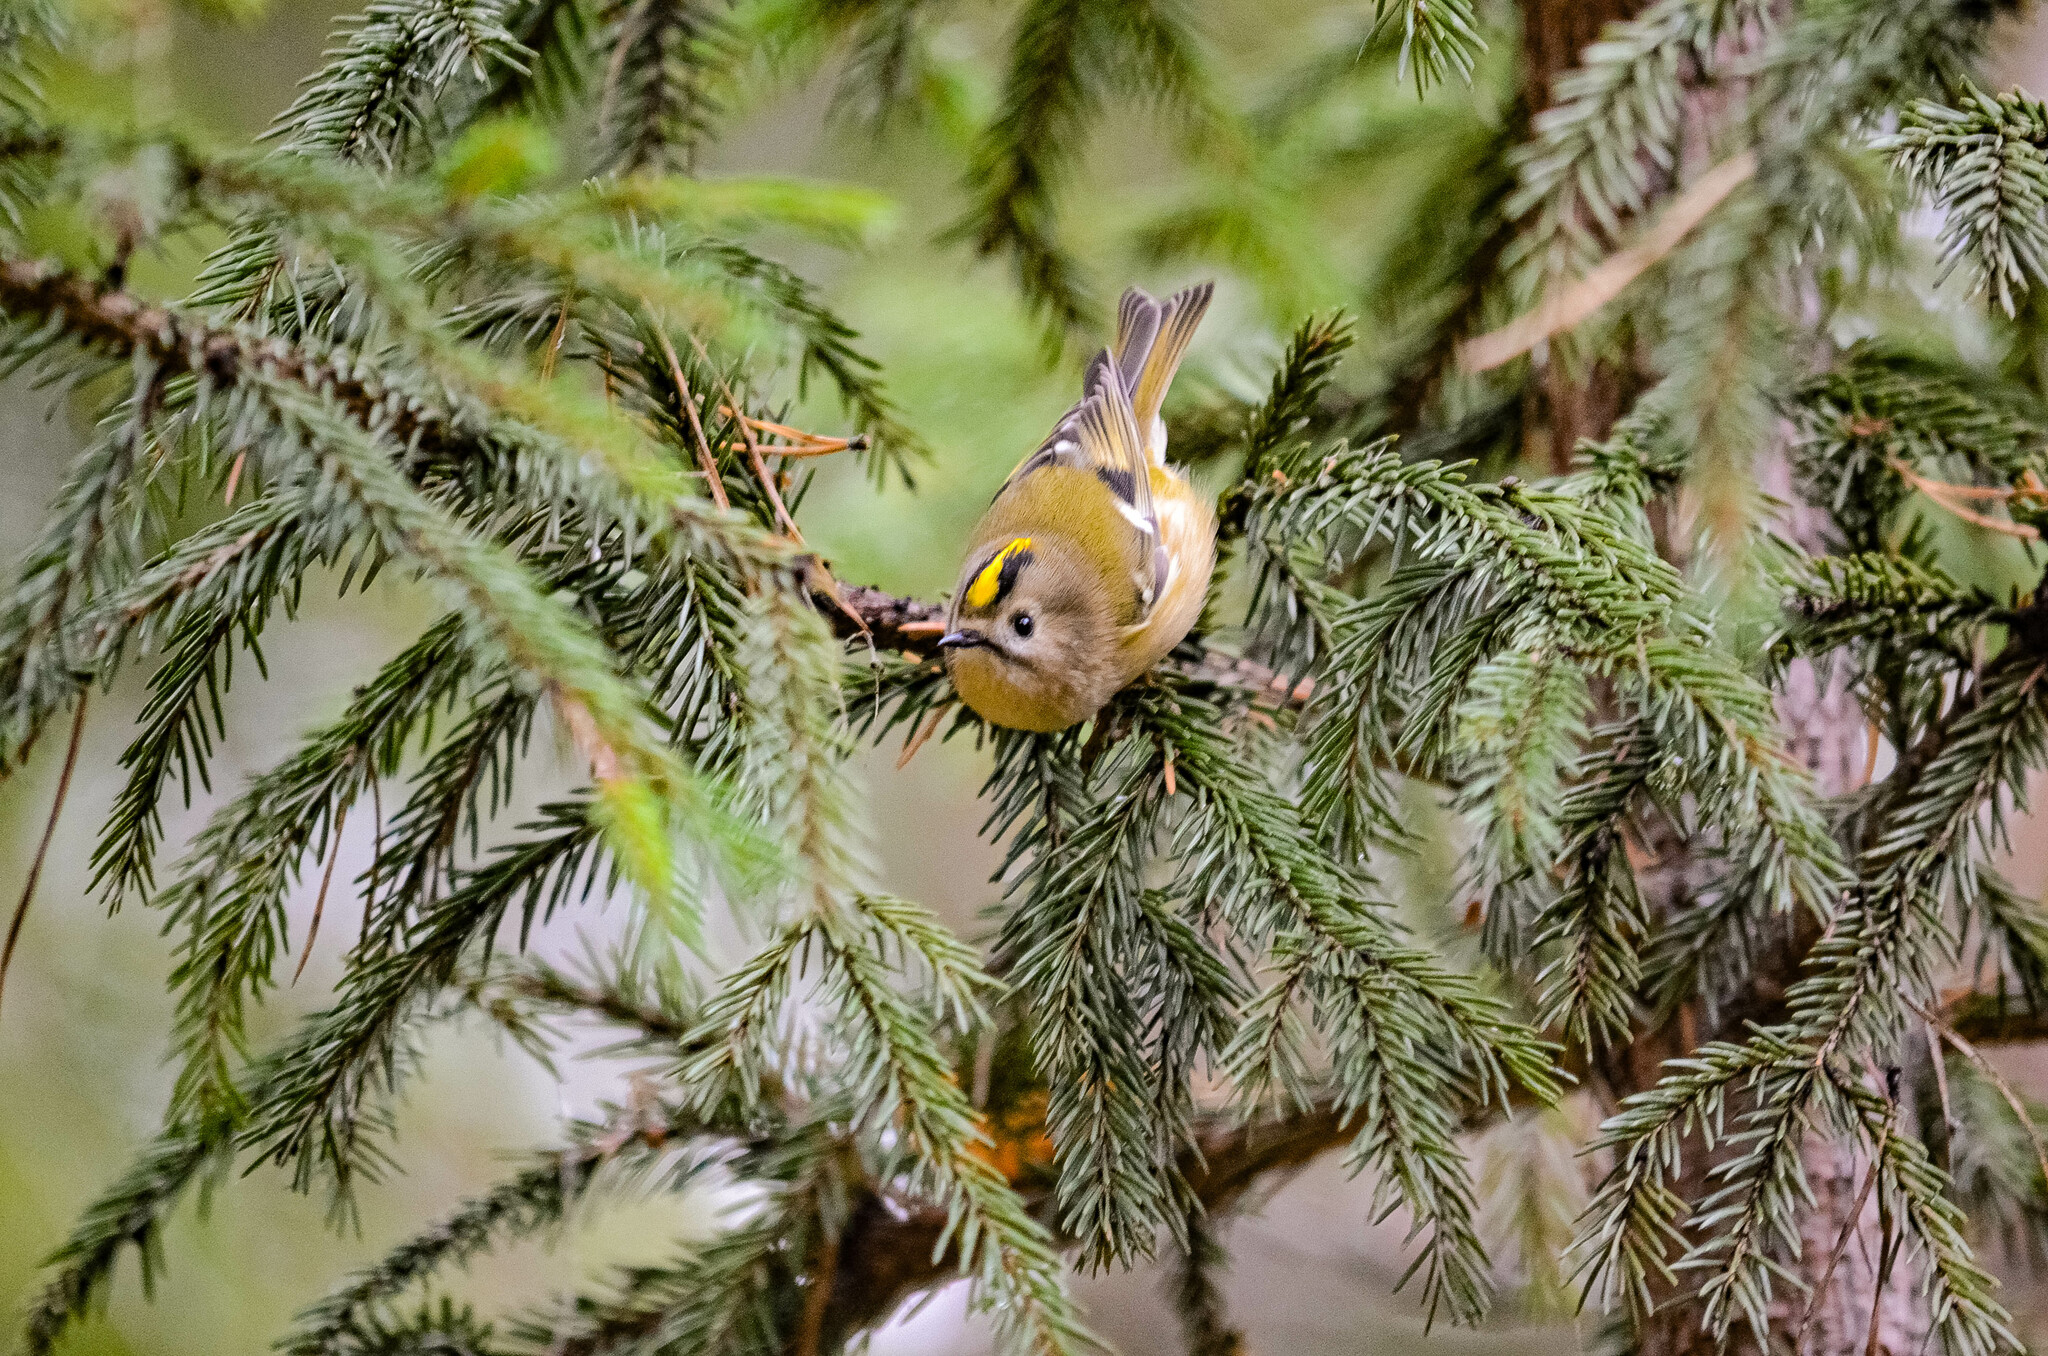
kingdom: Animalia
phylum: Chordata
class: Aves
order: Passeriformes
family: Regulidae
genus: Regulus
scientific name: Regulus regulus
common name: Goldcrest
